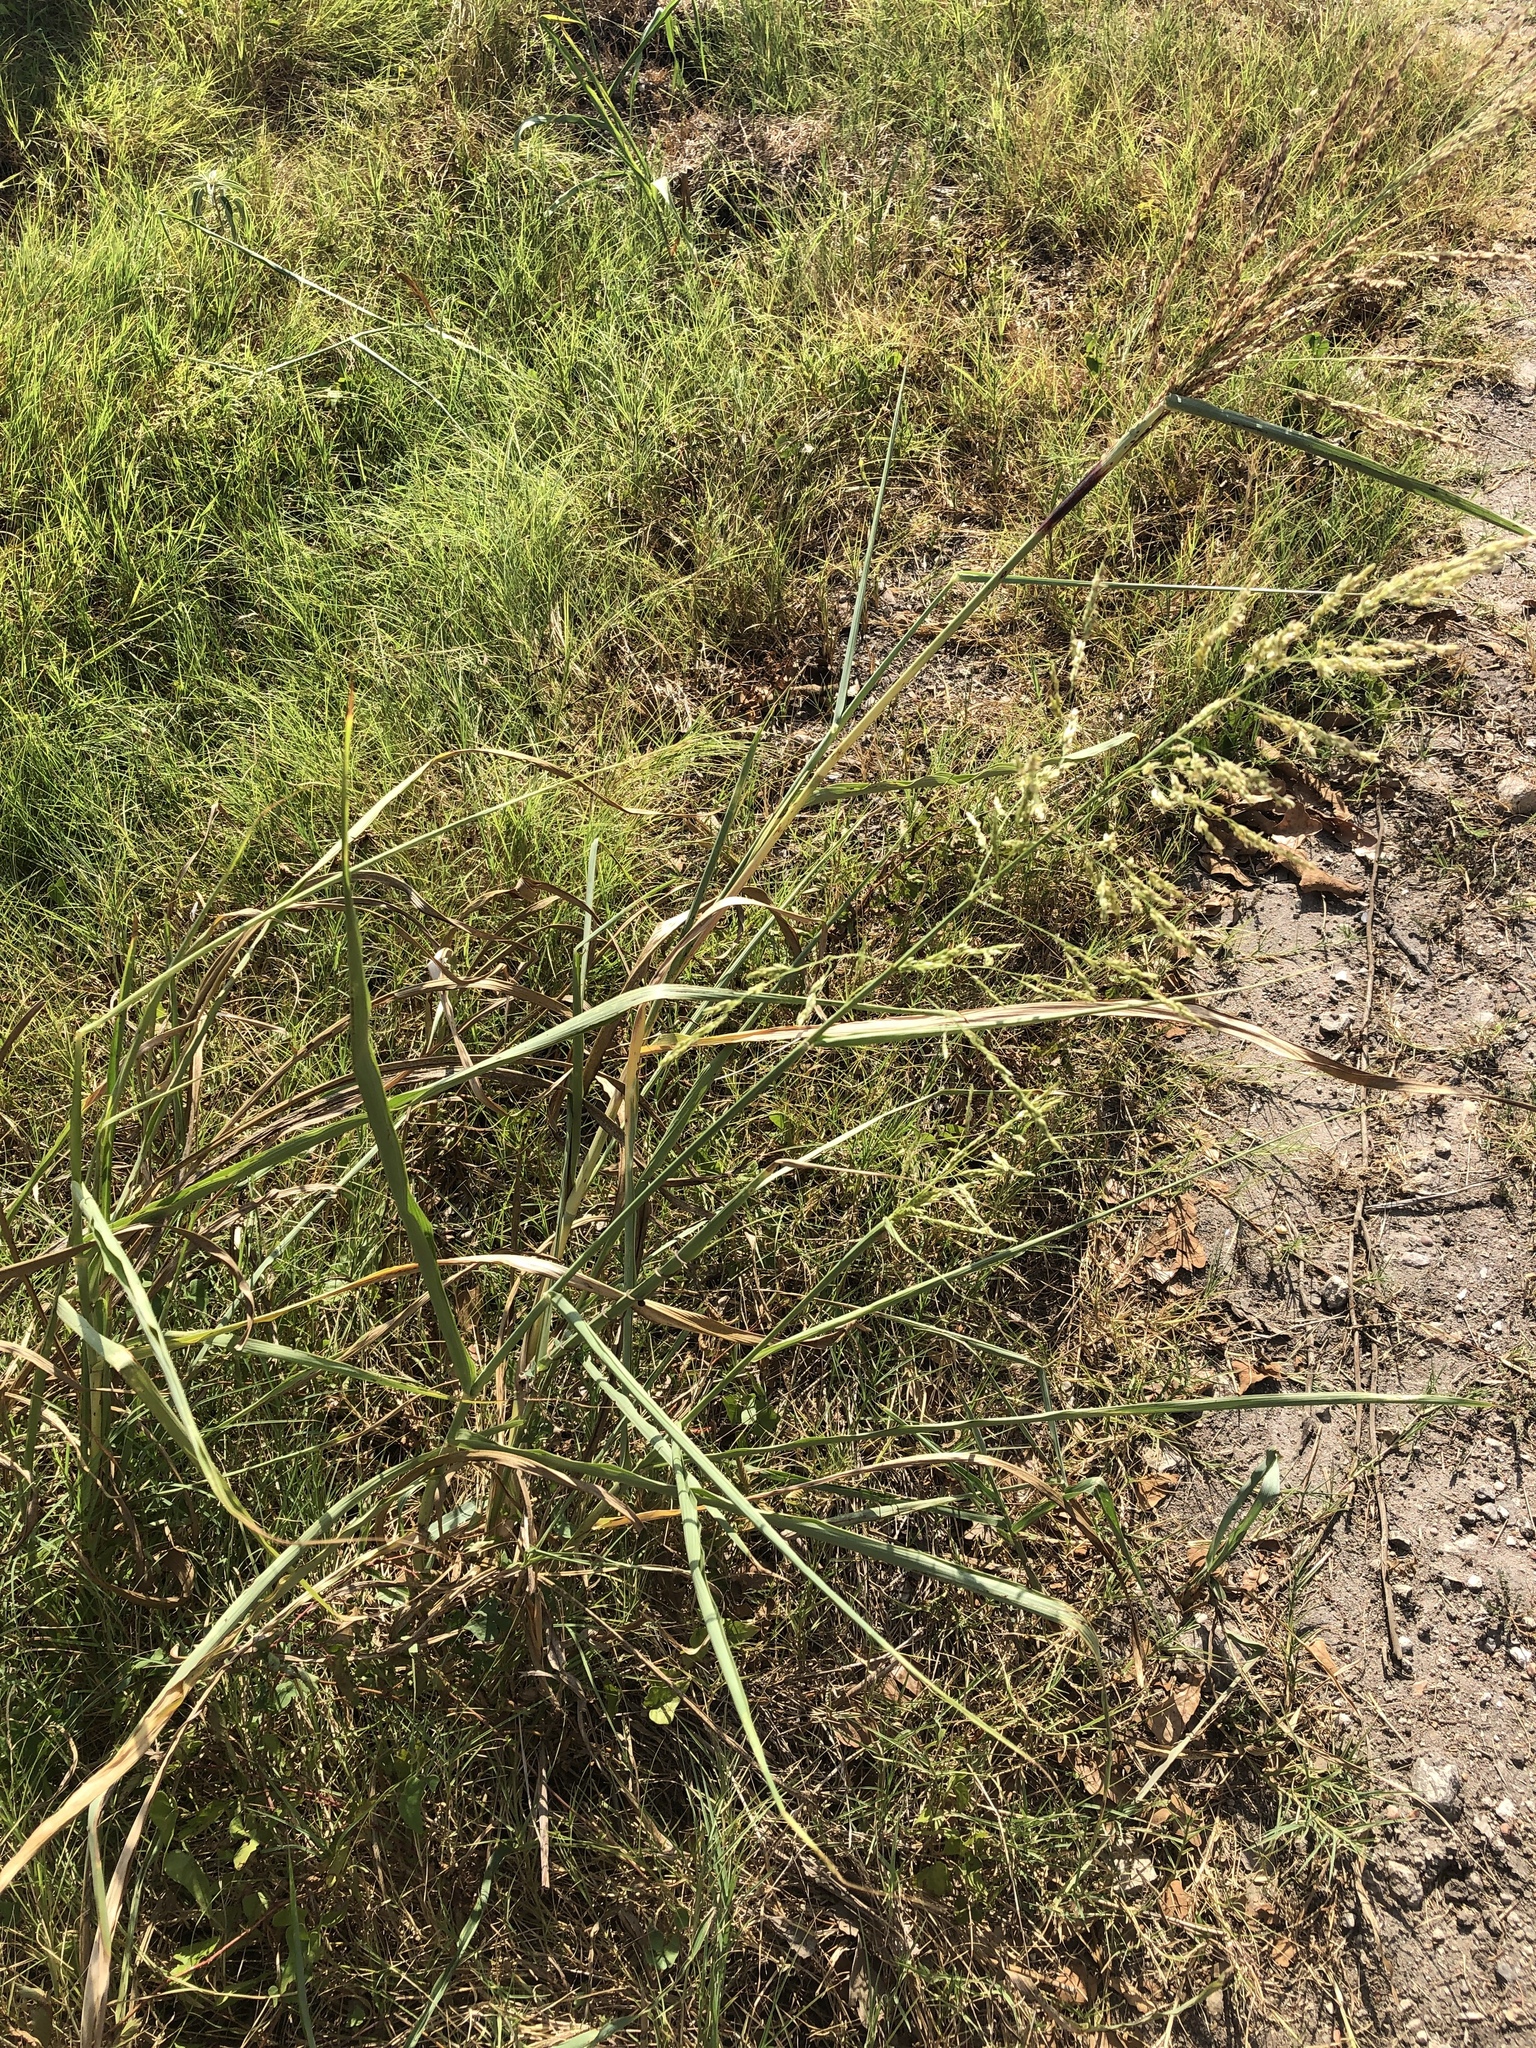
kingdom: Plantae
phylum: Tracheophyta
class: Liliopsida
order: Poales
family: Poaceae
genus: Sorghum
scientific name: Sorghum halepense
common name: Johnson-grass
